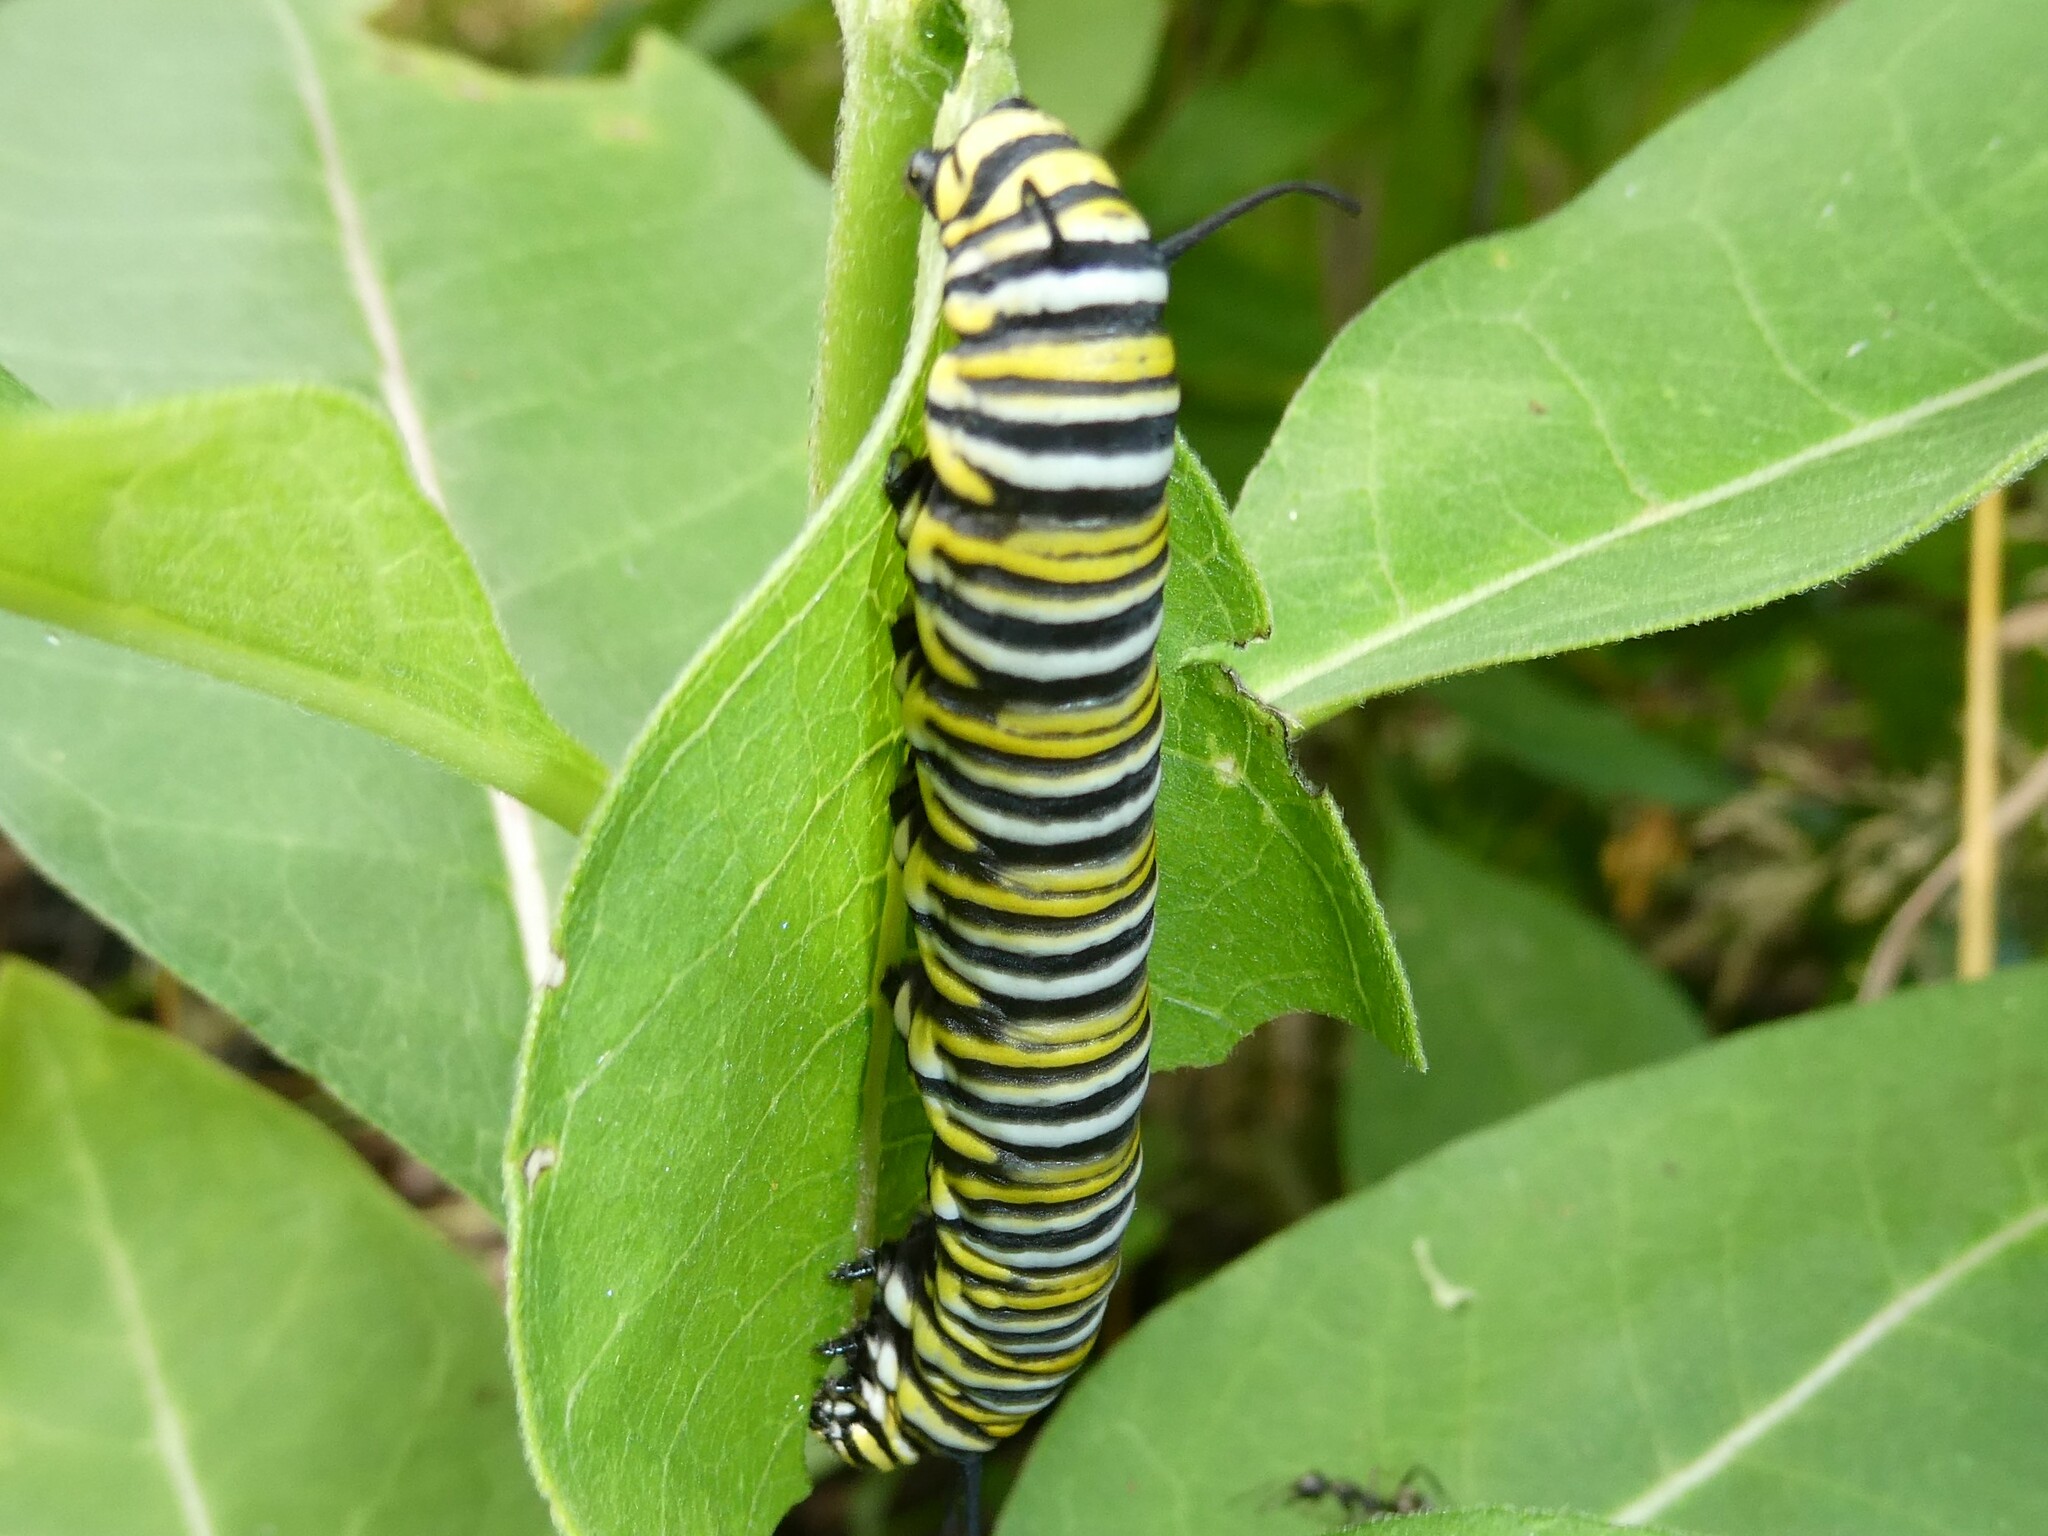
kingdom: Animalia
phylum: Arthropoda
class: Insecta
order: Lepidoptera
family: Nymphalidae
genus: Danaus
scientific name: Danaus plexippus
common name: Monarch
